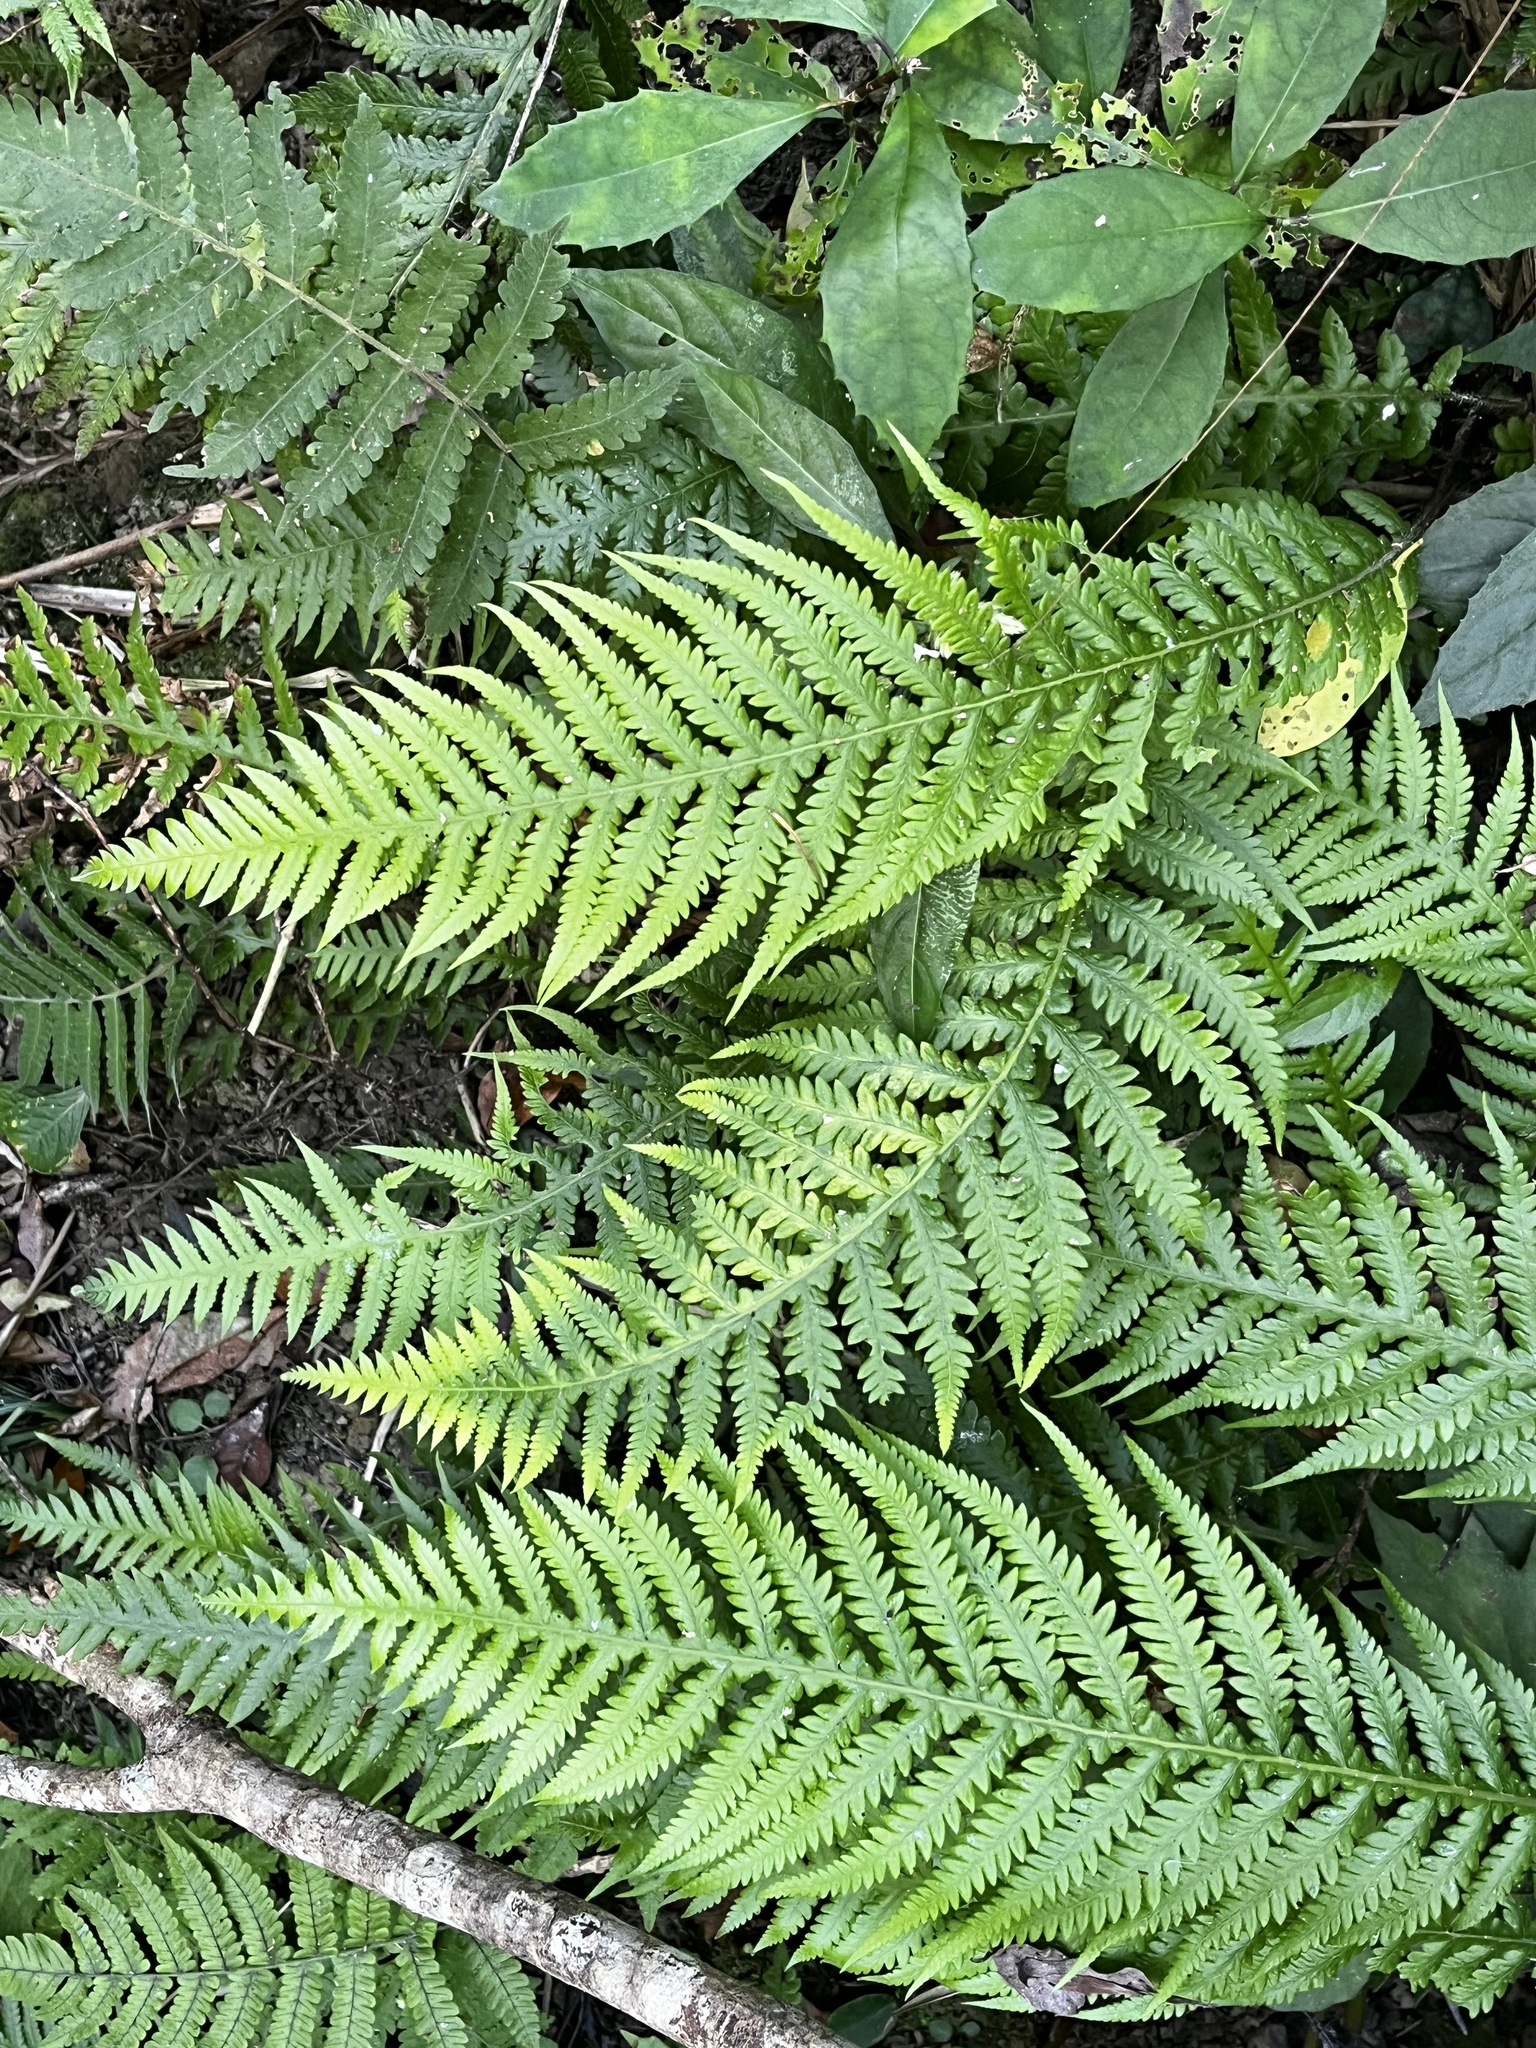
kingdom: Plantae
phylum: Tracheophyta
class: Polypodiopsida
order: Polypodiales
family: Thelypteridaceae
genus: Phegopteris
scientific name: Phegopteris decursive-pinnata
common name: Japanese beech fern
